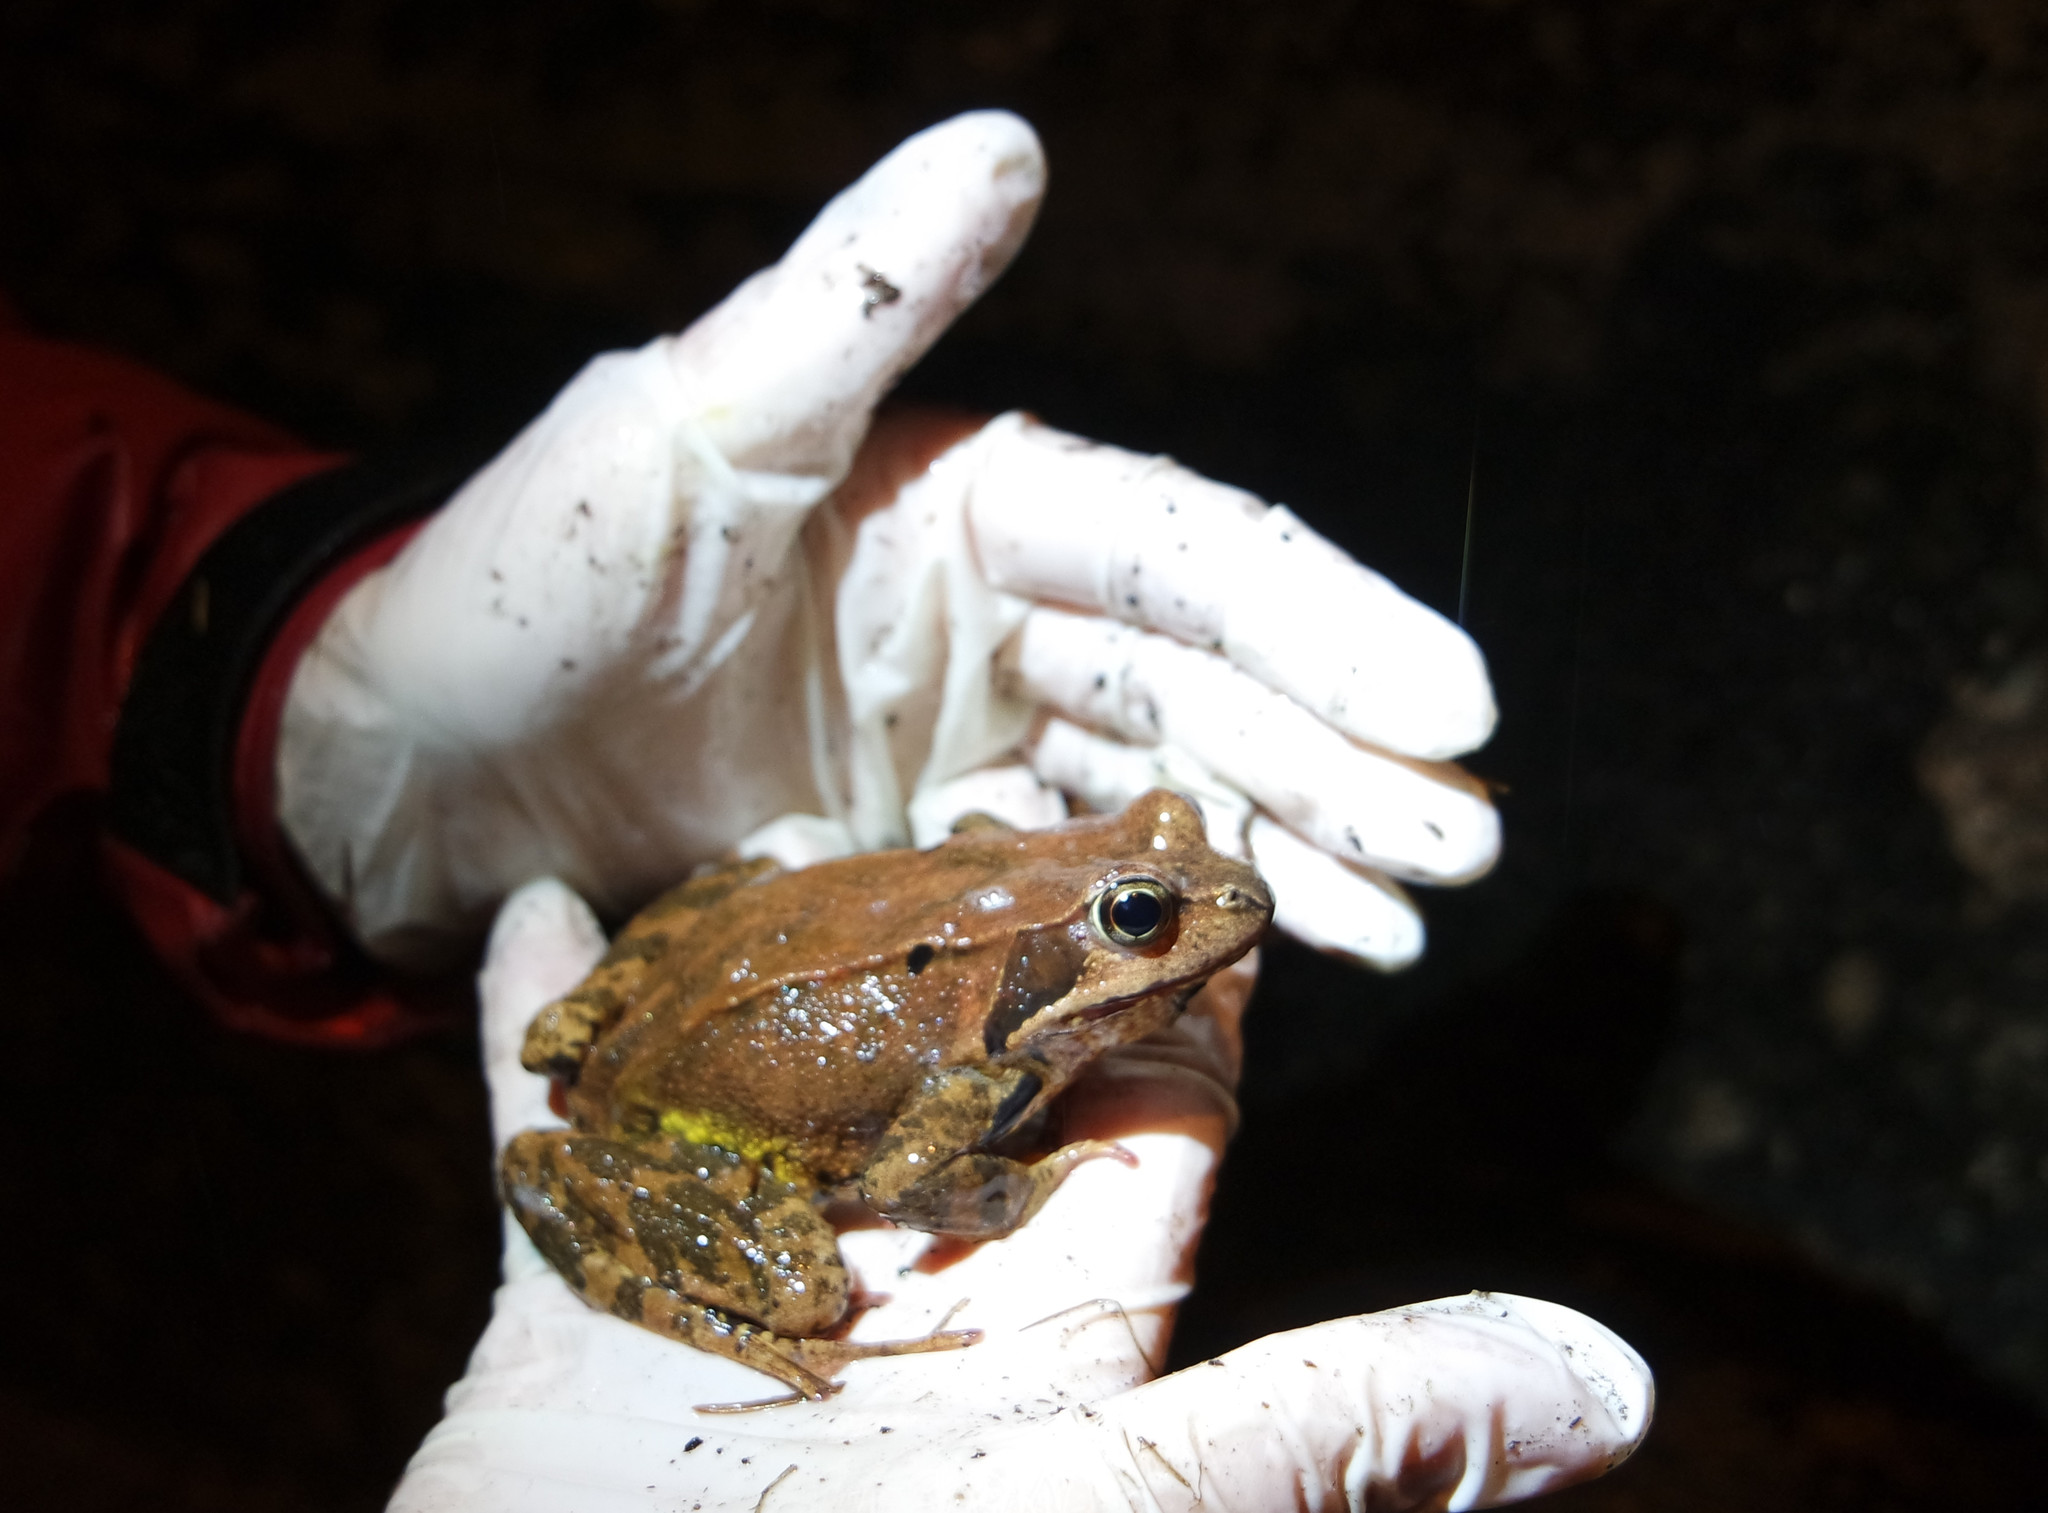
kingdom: Animalia
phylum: Chordata
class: Amphibia
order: Anura
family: Ranidae
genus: Rana
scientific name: Rana temporaria
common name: Common frog
